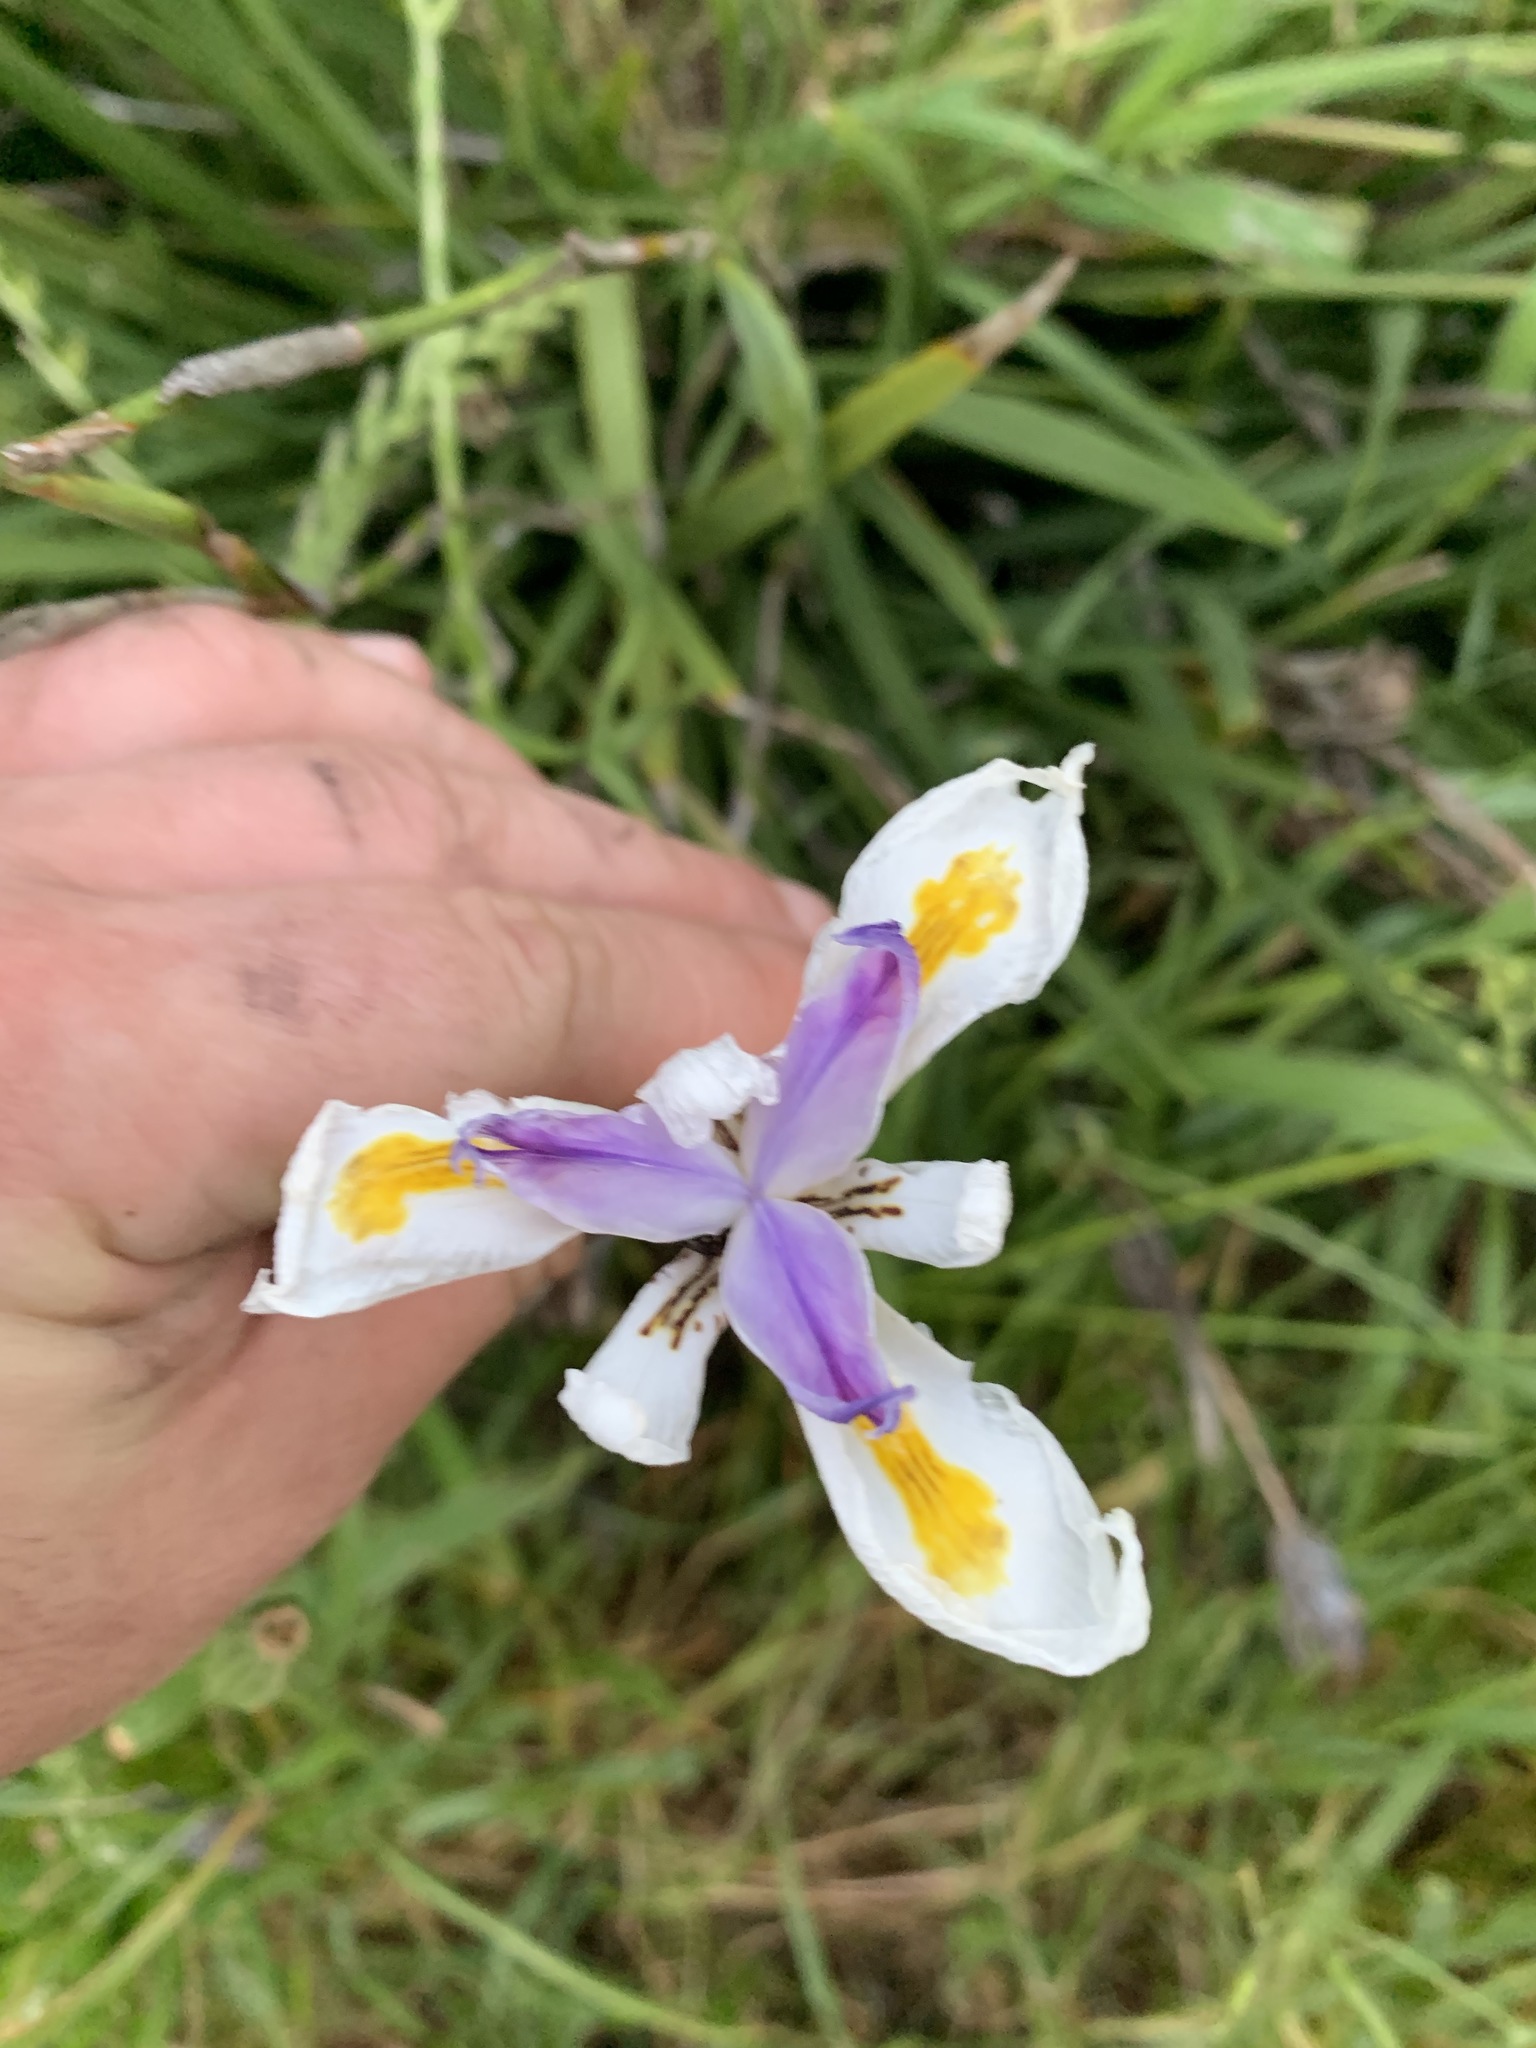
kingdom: Plantae
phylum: Tracheophyta
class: Liliopsida
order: Asparagales
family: Iridaceae
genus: Dietes
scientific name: Dietes grandiflora
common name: Wild iris
